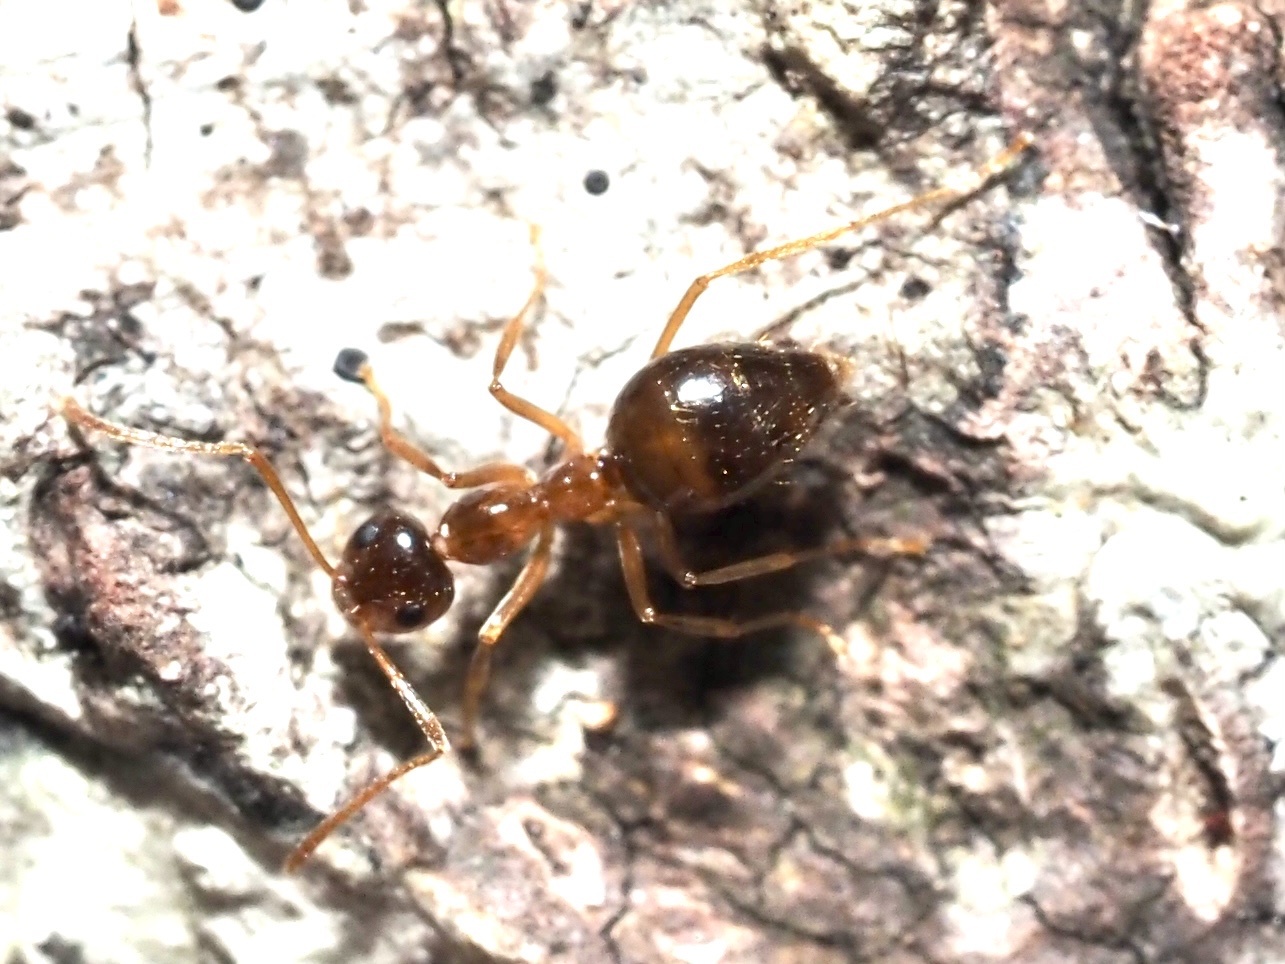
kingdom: Animalia
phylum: Arthropoda
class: Insecta
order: Hymenoptera
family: Formicidae
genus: Prenolepis
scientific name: Prenolepis imparis
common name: Small honey ant
